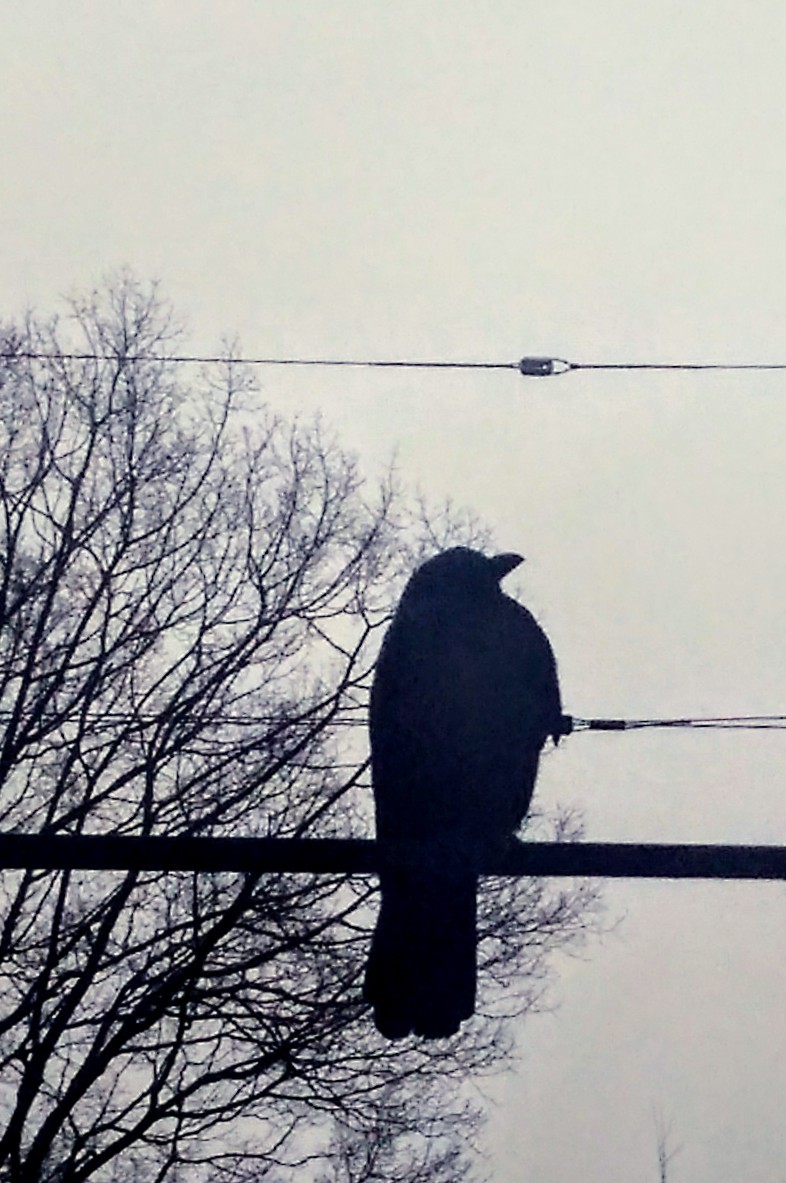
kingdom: Animalia
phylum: Chordata
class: Aves
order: Passeriformes
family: Corvidae
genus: Corvus
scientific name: Corvus brachyrhynchos
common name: American crow
